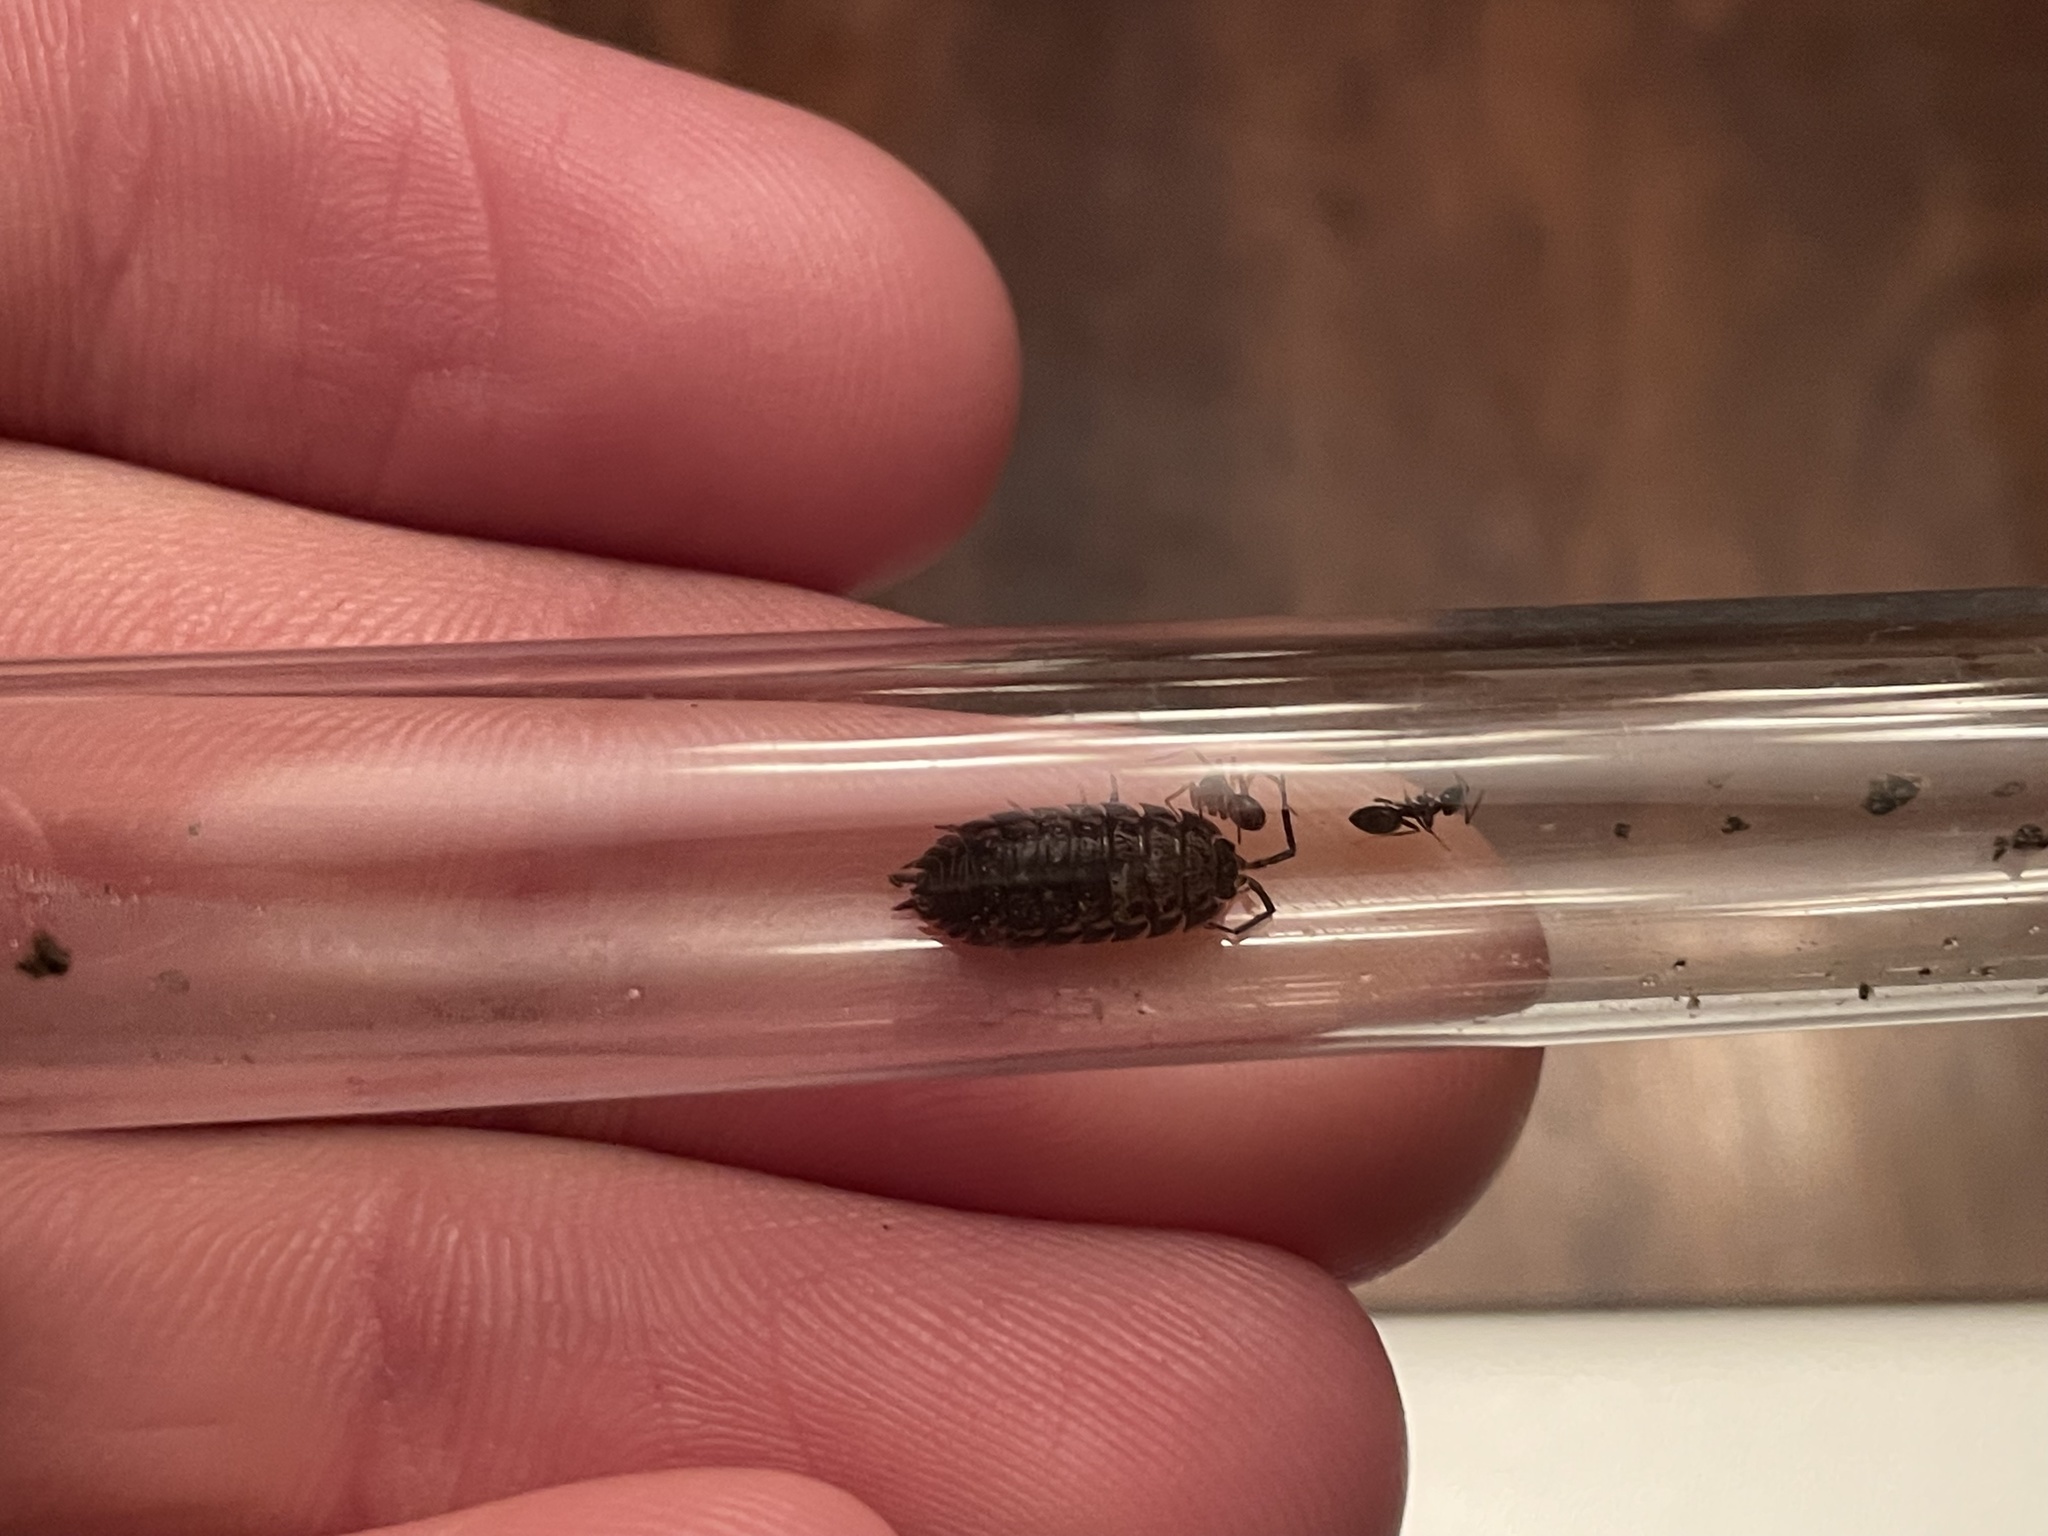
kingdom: Animalia
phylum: Arthropoda
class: Malacostraca
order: Isopoda
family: Trachelipodidae
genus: Trachelipus
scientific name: Trachelipus rathkii
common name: Isopod
